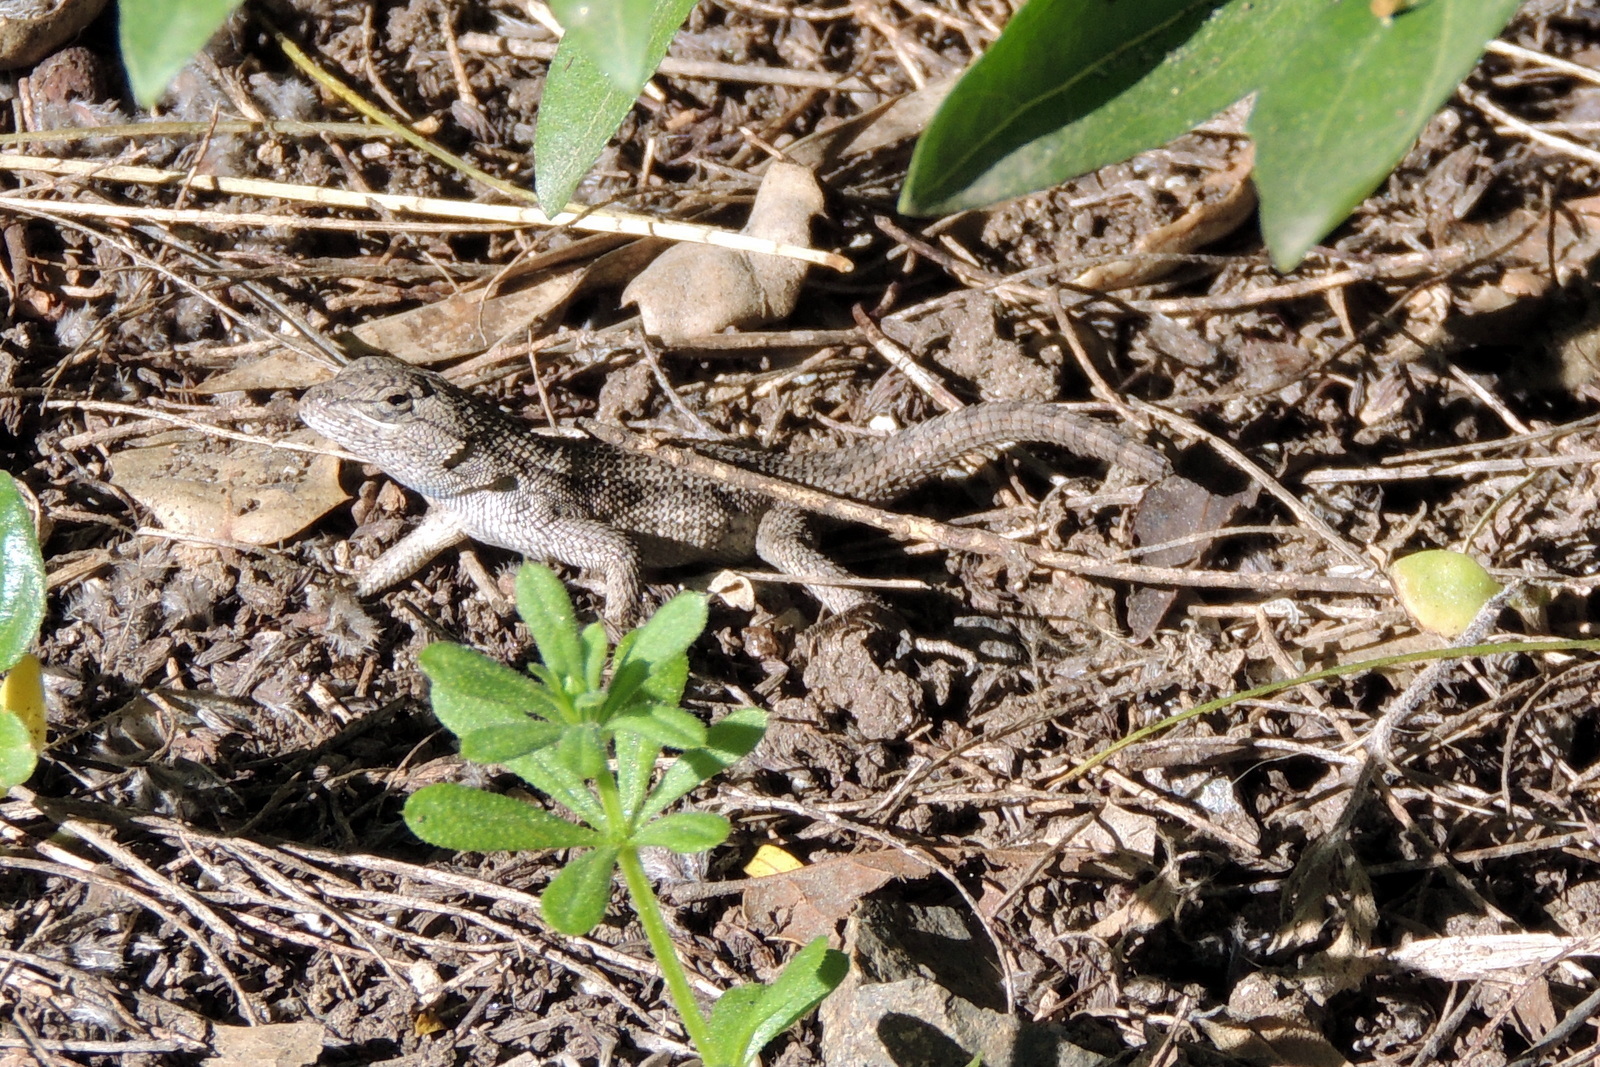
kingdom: Animalia
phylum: Chordata
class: Squamata
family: Phrynosomatidae
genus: Sceloporus
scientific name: Sceloporus occidentalis
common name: Western fence lizard
